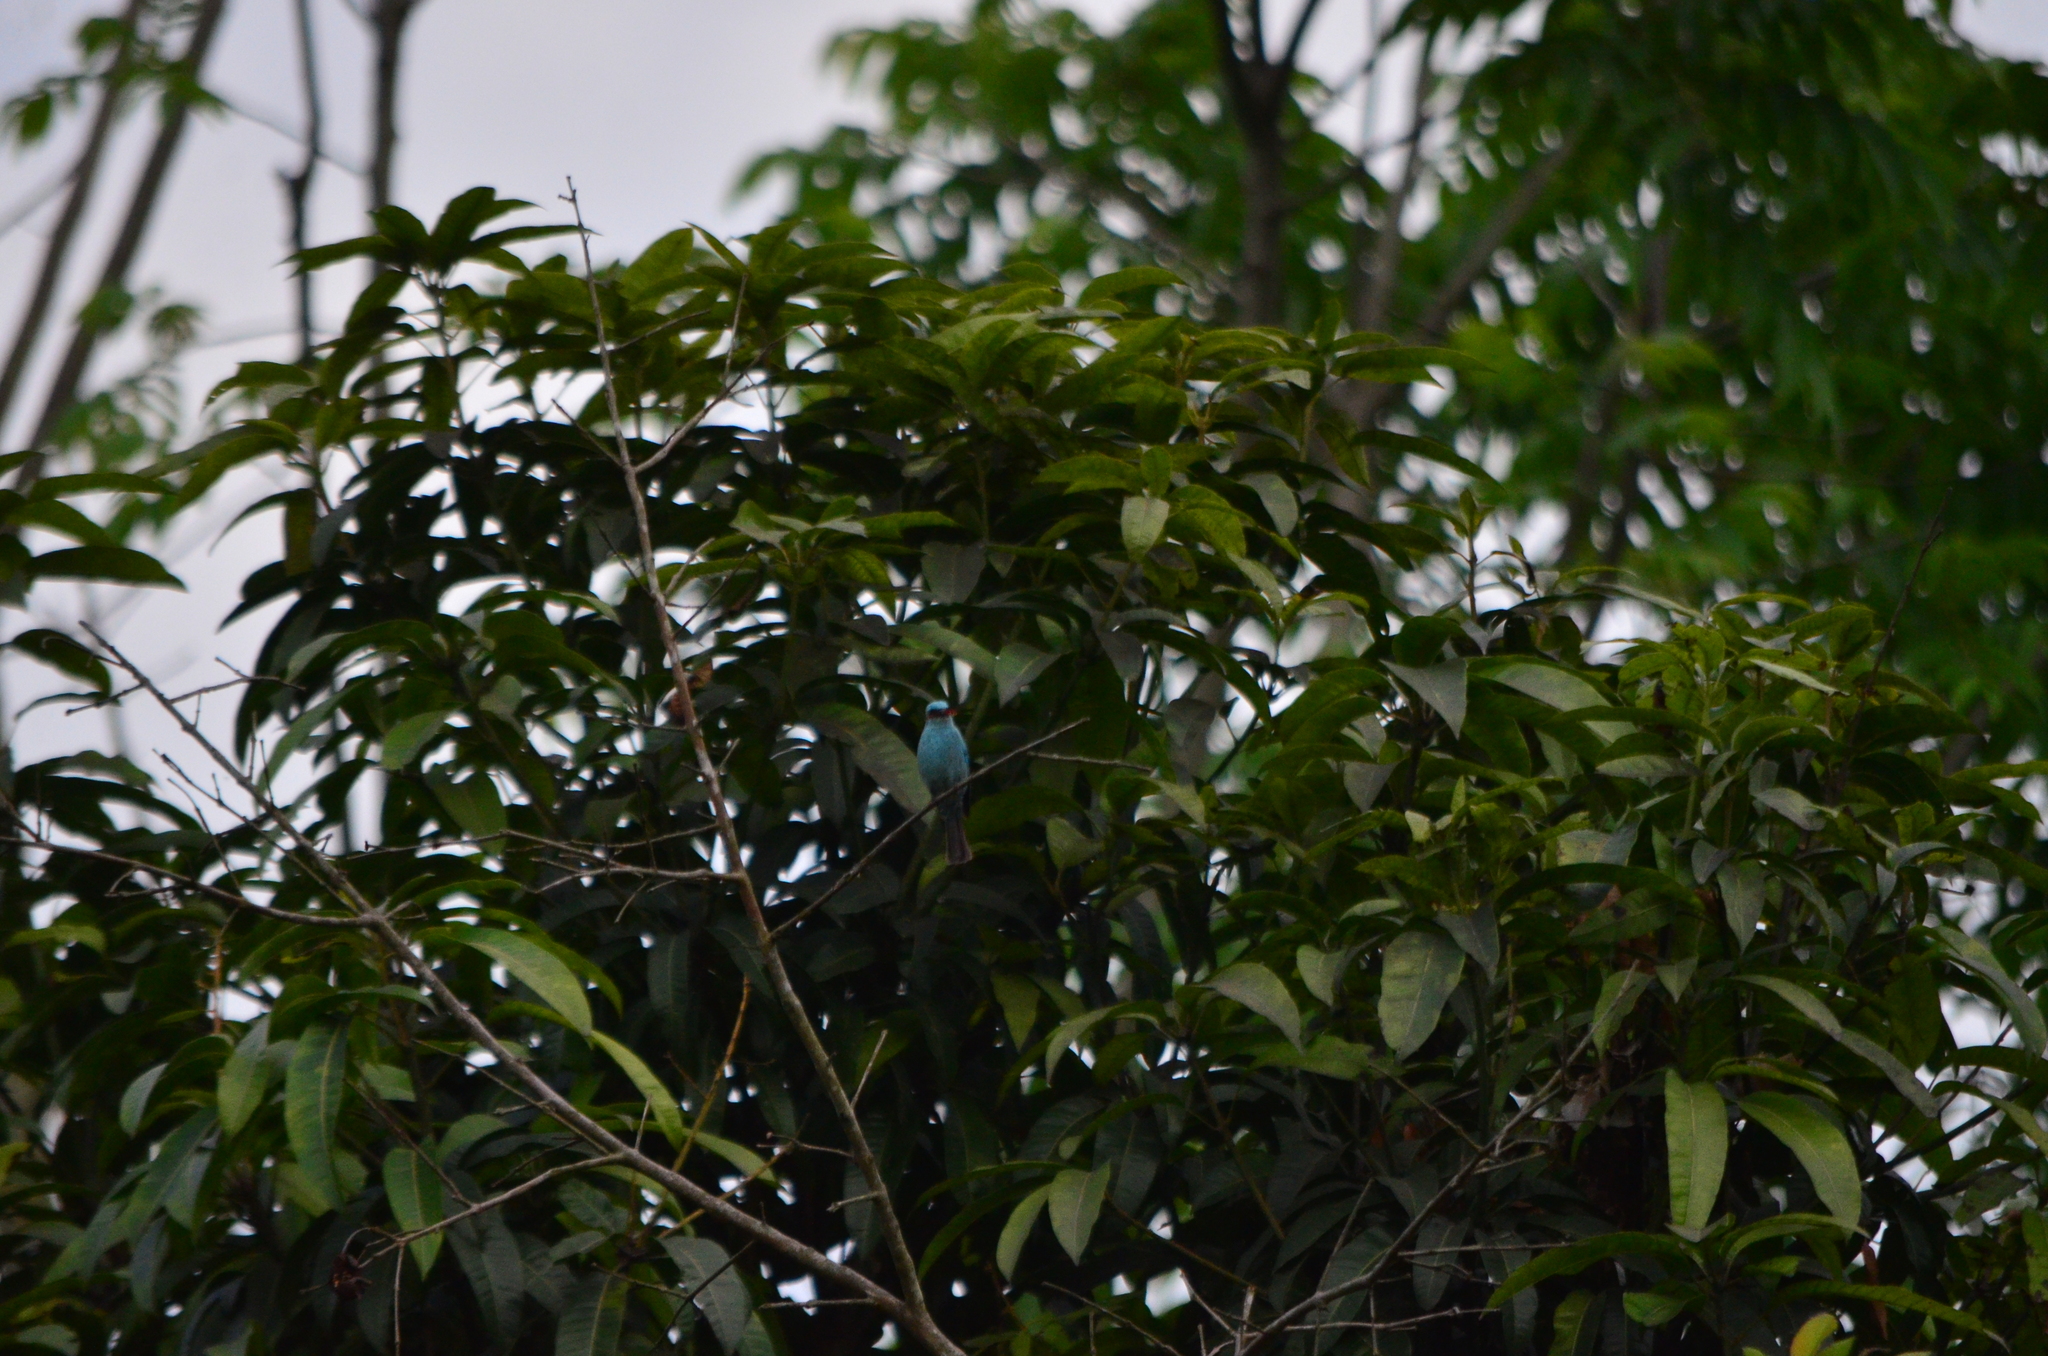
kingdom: Animalia
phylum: Chordata
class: Aves
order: Passeriformes
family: Muscicapidae
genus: Eumyias
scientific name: Eumyias thalassinus
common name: Verditer flycatcher
